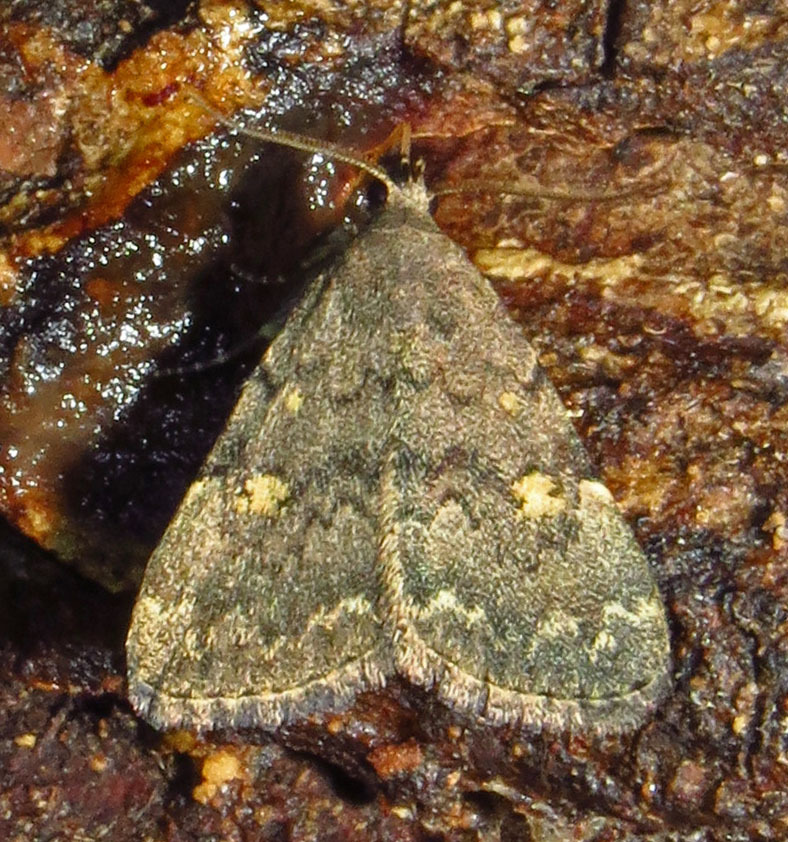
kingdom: Animalia
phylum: Arthropoda
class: Insecta
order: Lepidoptera
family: Erebidae
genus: Idia
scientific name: Idia aemula
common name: Common idia moth
